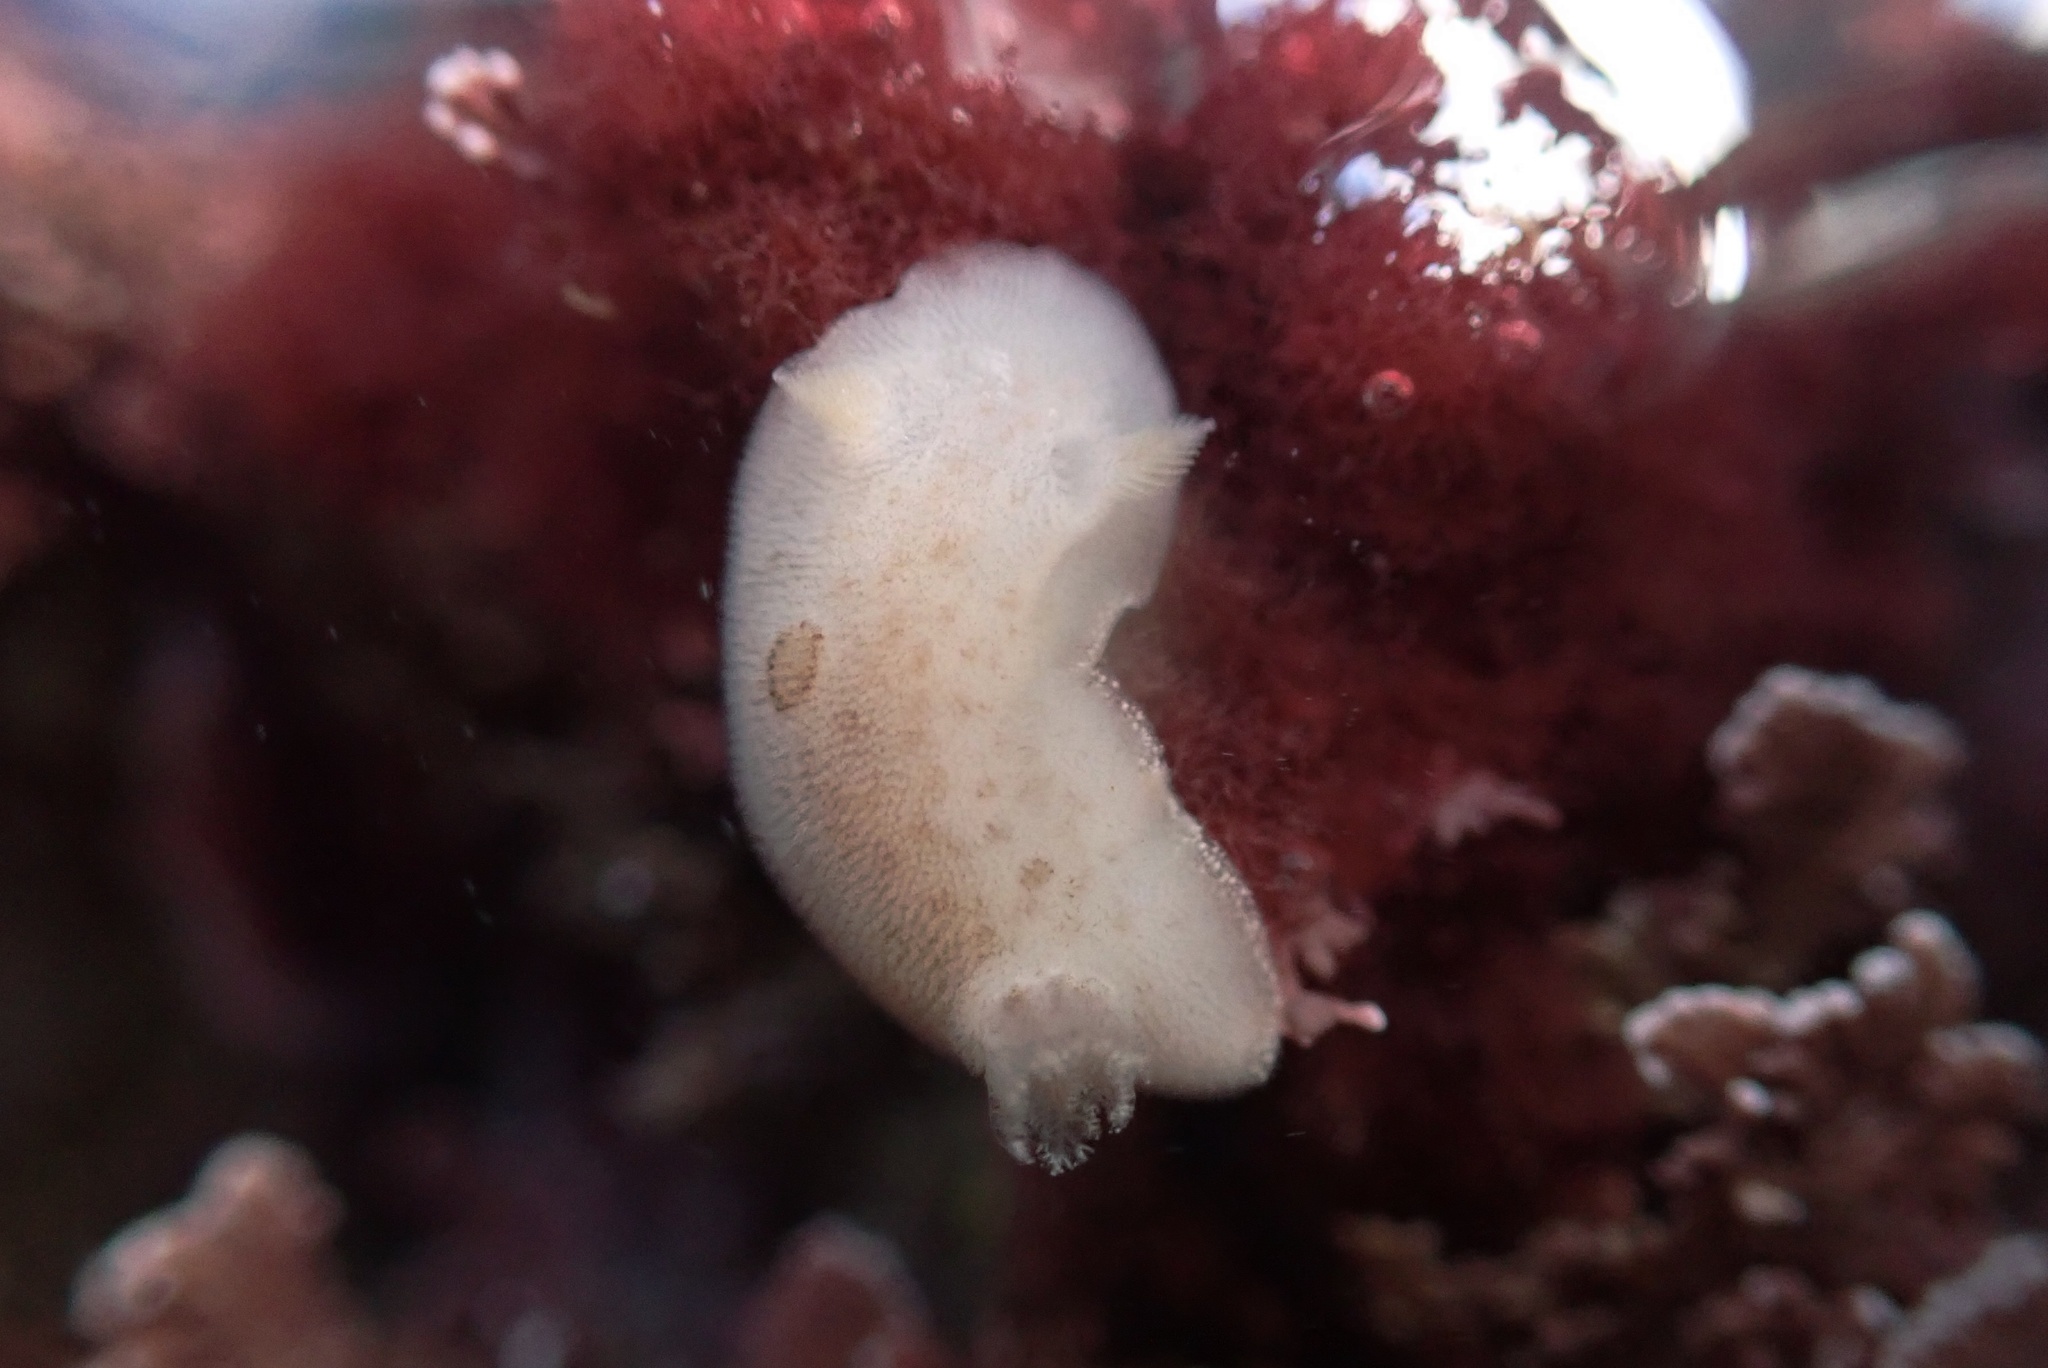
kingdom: Animalia
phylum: Mollusca
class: Gastropoda
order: Nudibranchia
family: Discodorididae
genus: Diaulula
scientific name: Diaulula sandiegensis
